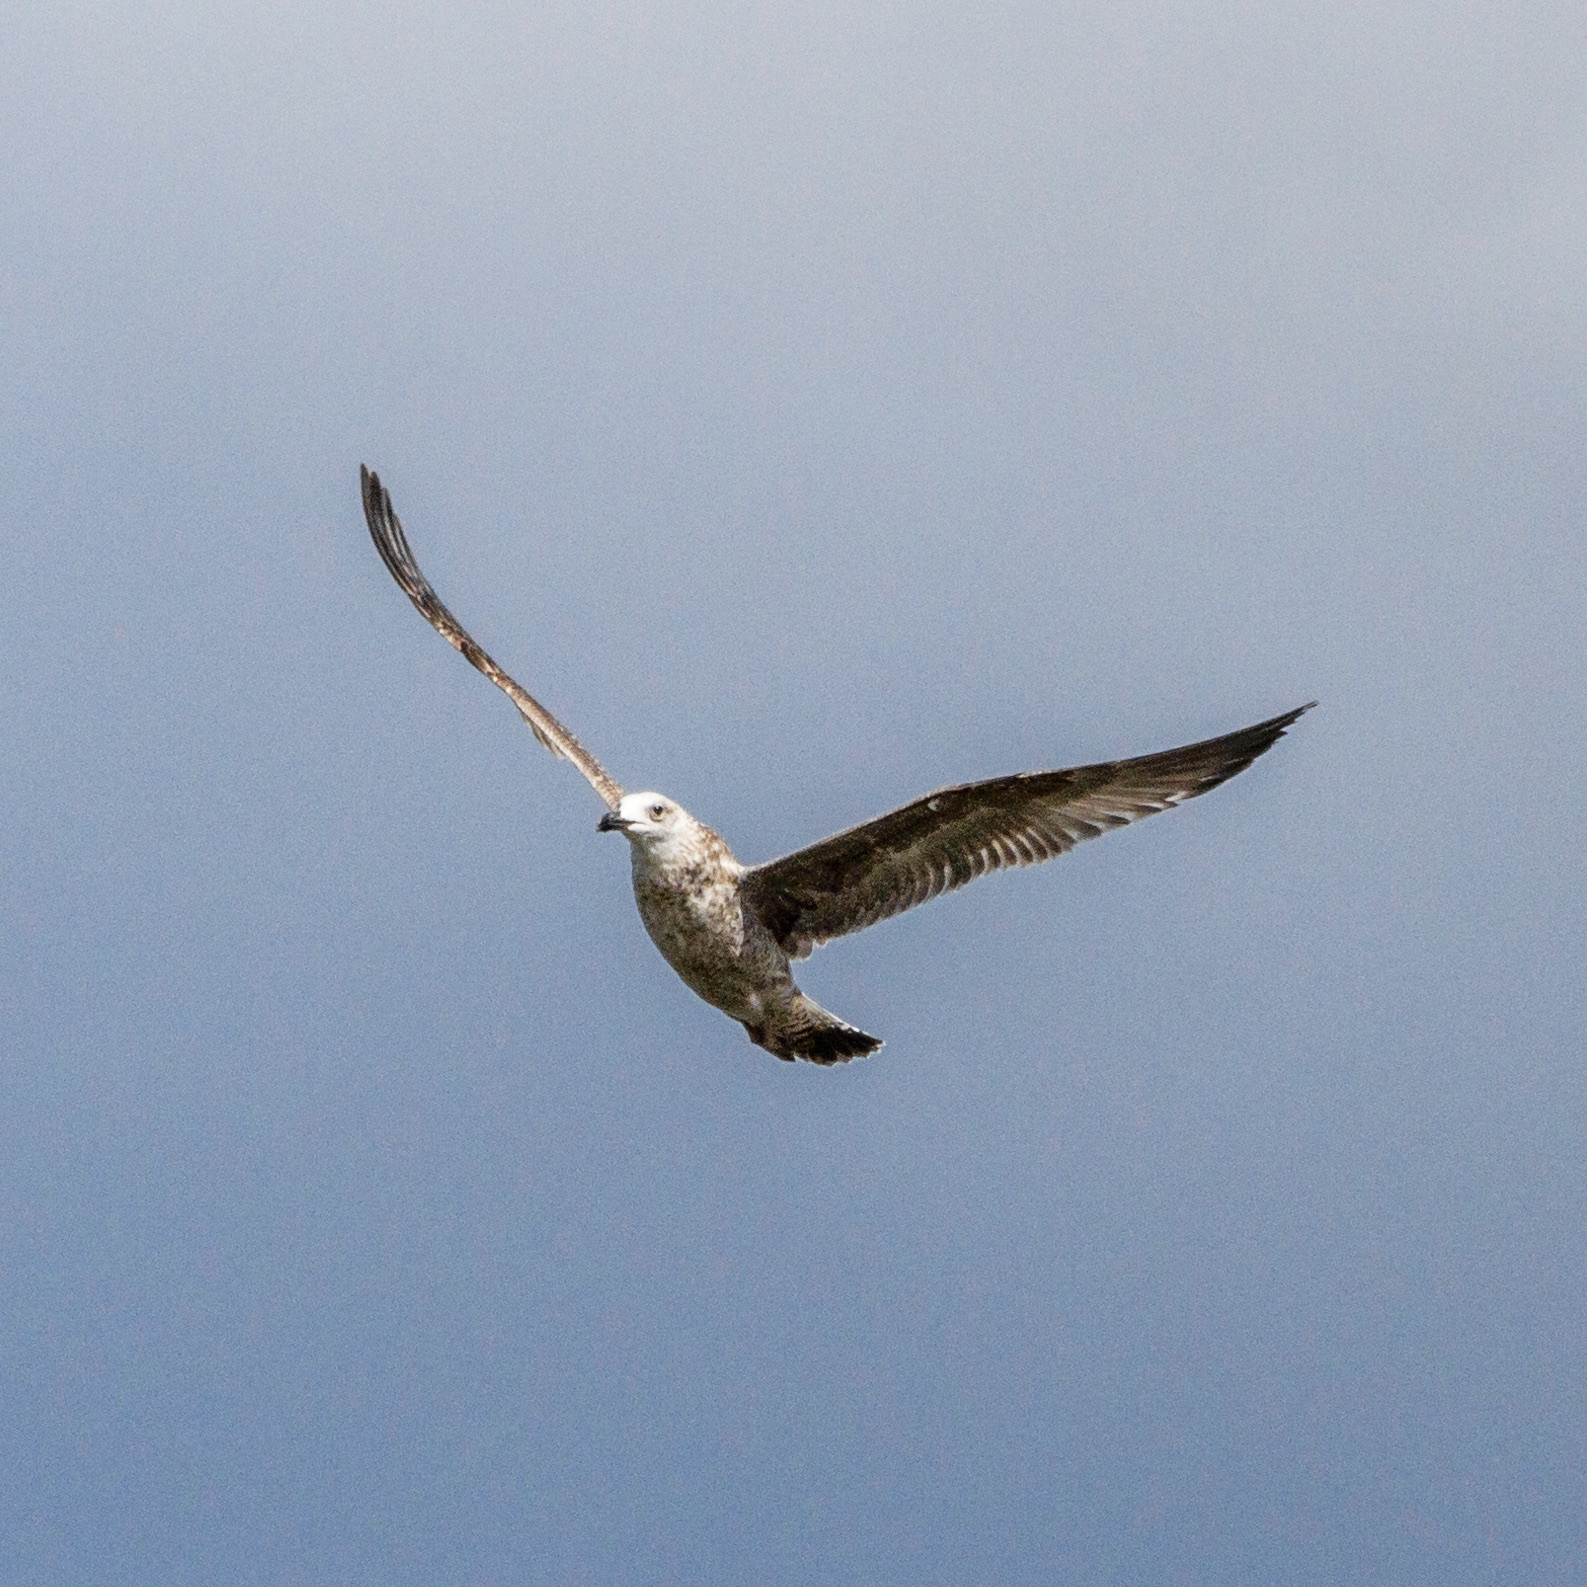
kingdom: Animalia
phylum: Chordata
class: Aves
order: Charadriiformes
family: Laridae
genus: Larus
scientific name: Larus cachinnans
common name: Caspian gull
